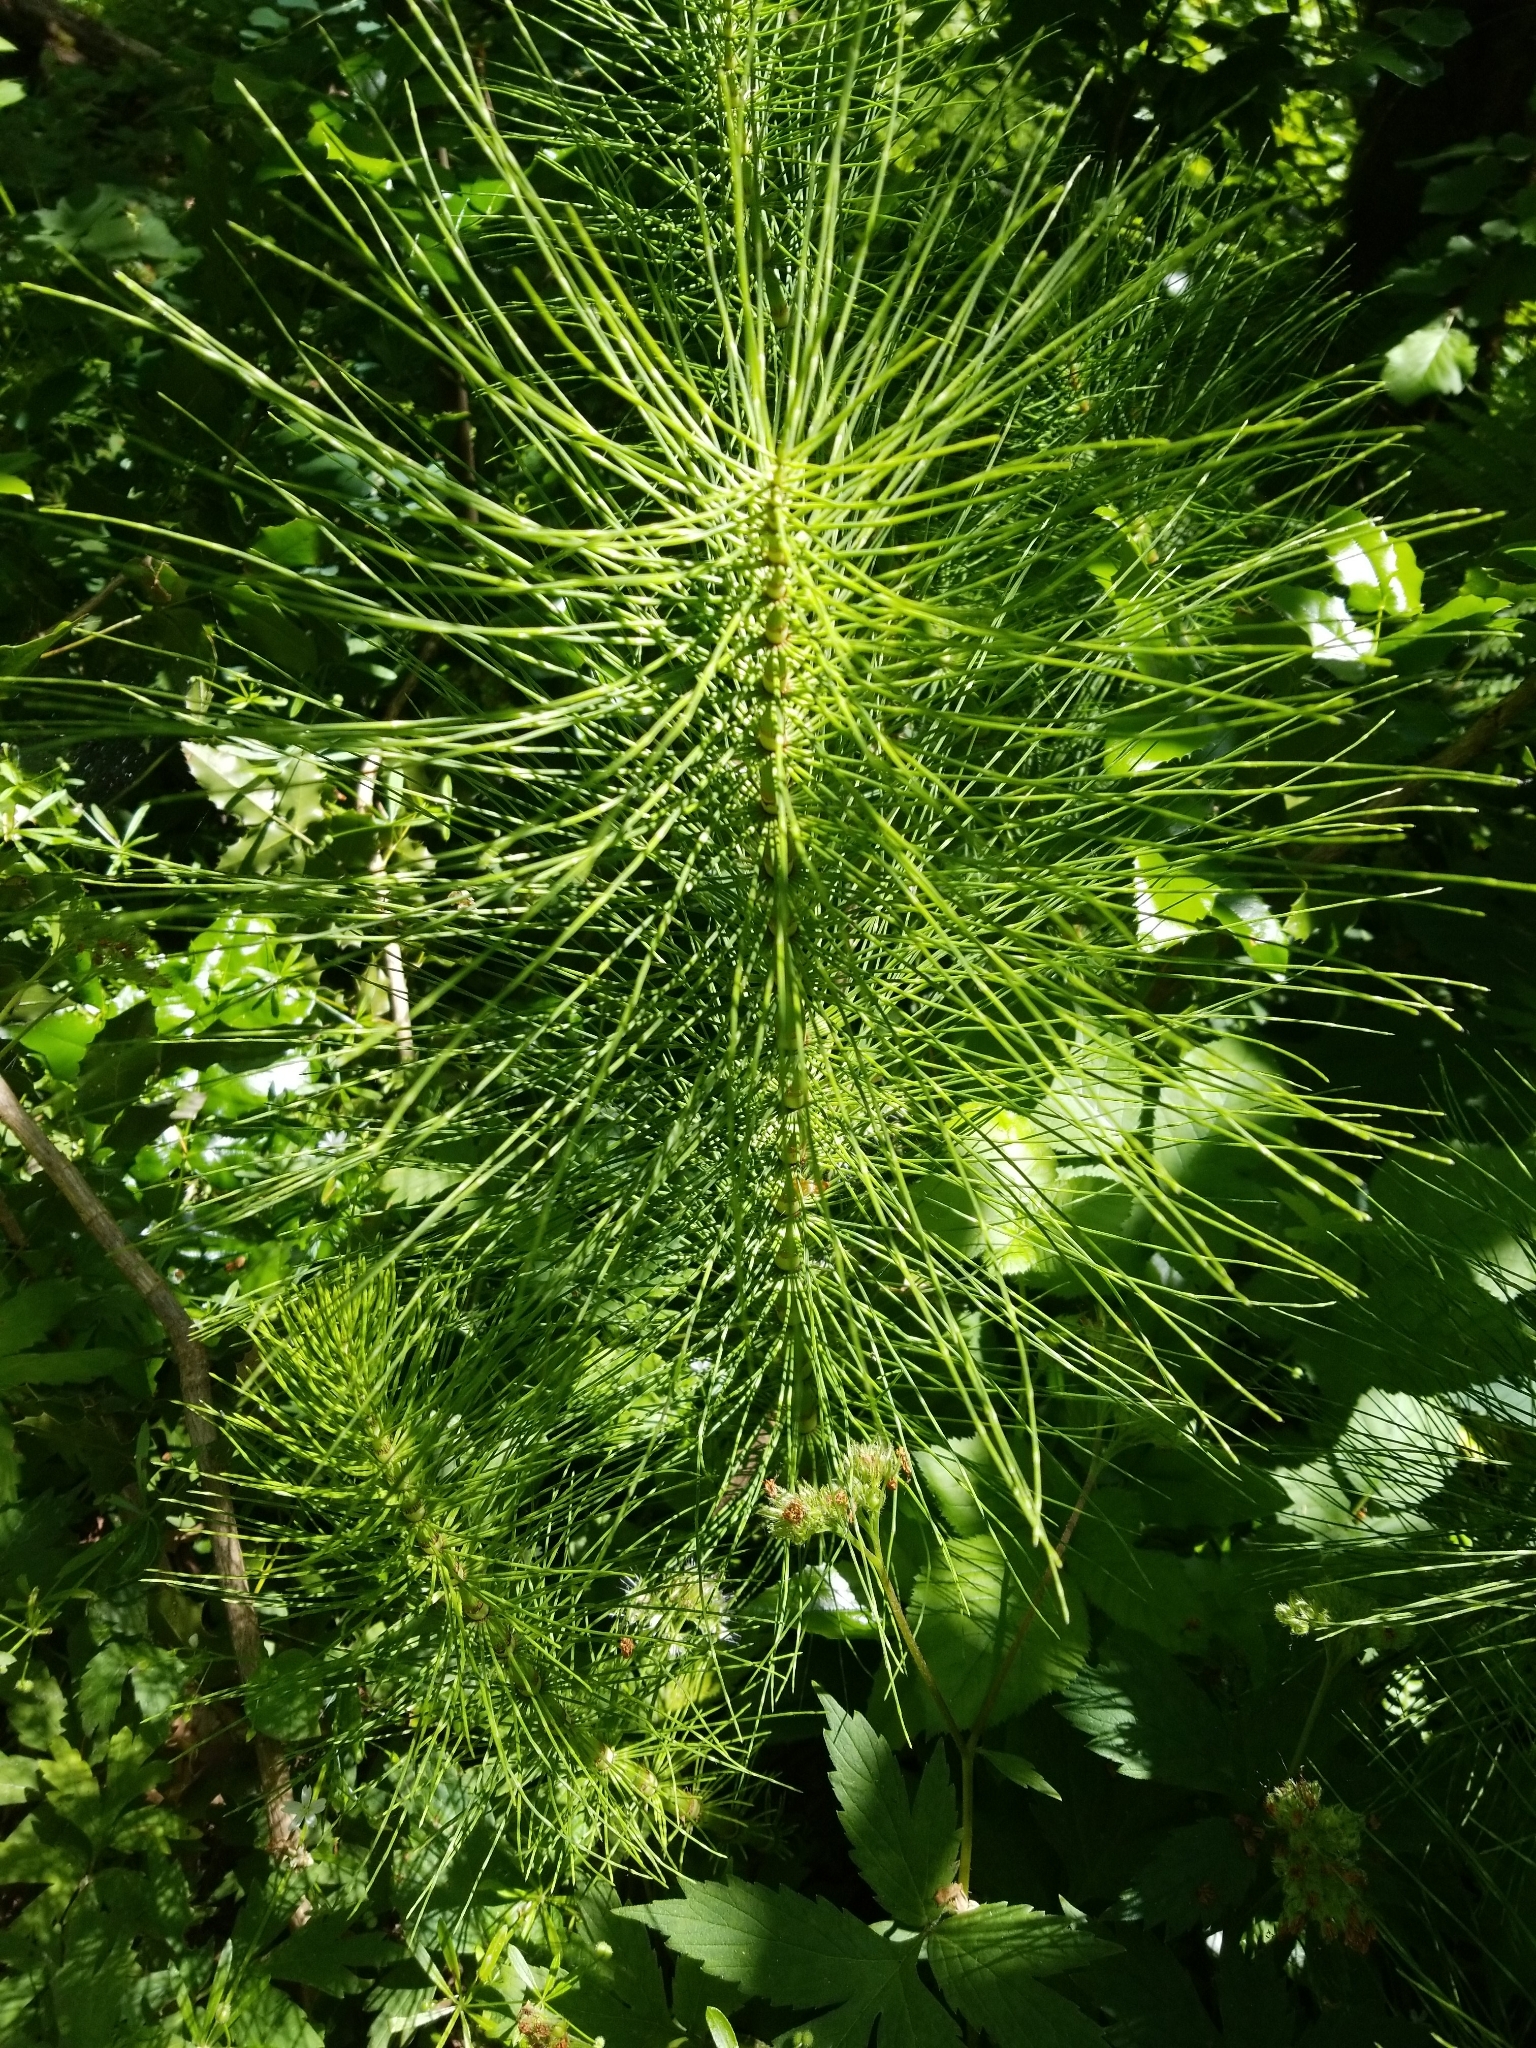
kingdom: Plantae
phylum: Tracheophyta
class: Polypodiopsida
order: Equisetales
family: Equisetaceae
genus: Equisetum
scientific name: Equisetum braunii
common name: Braun's horsetail
